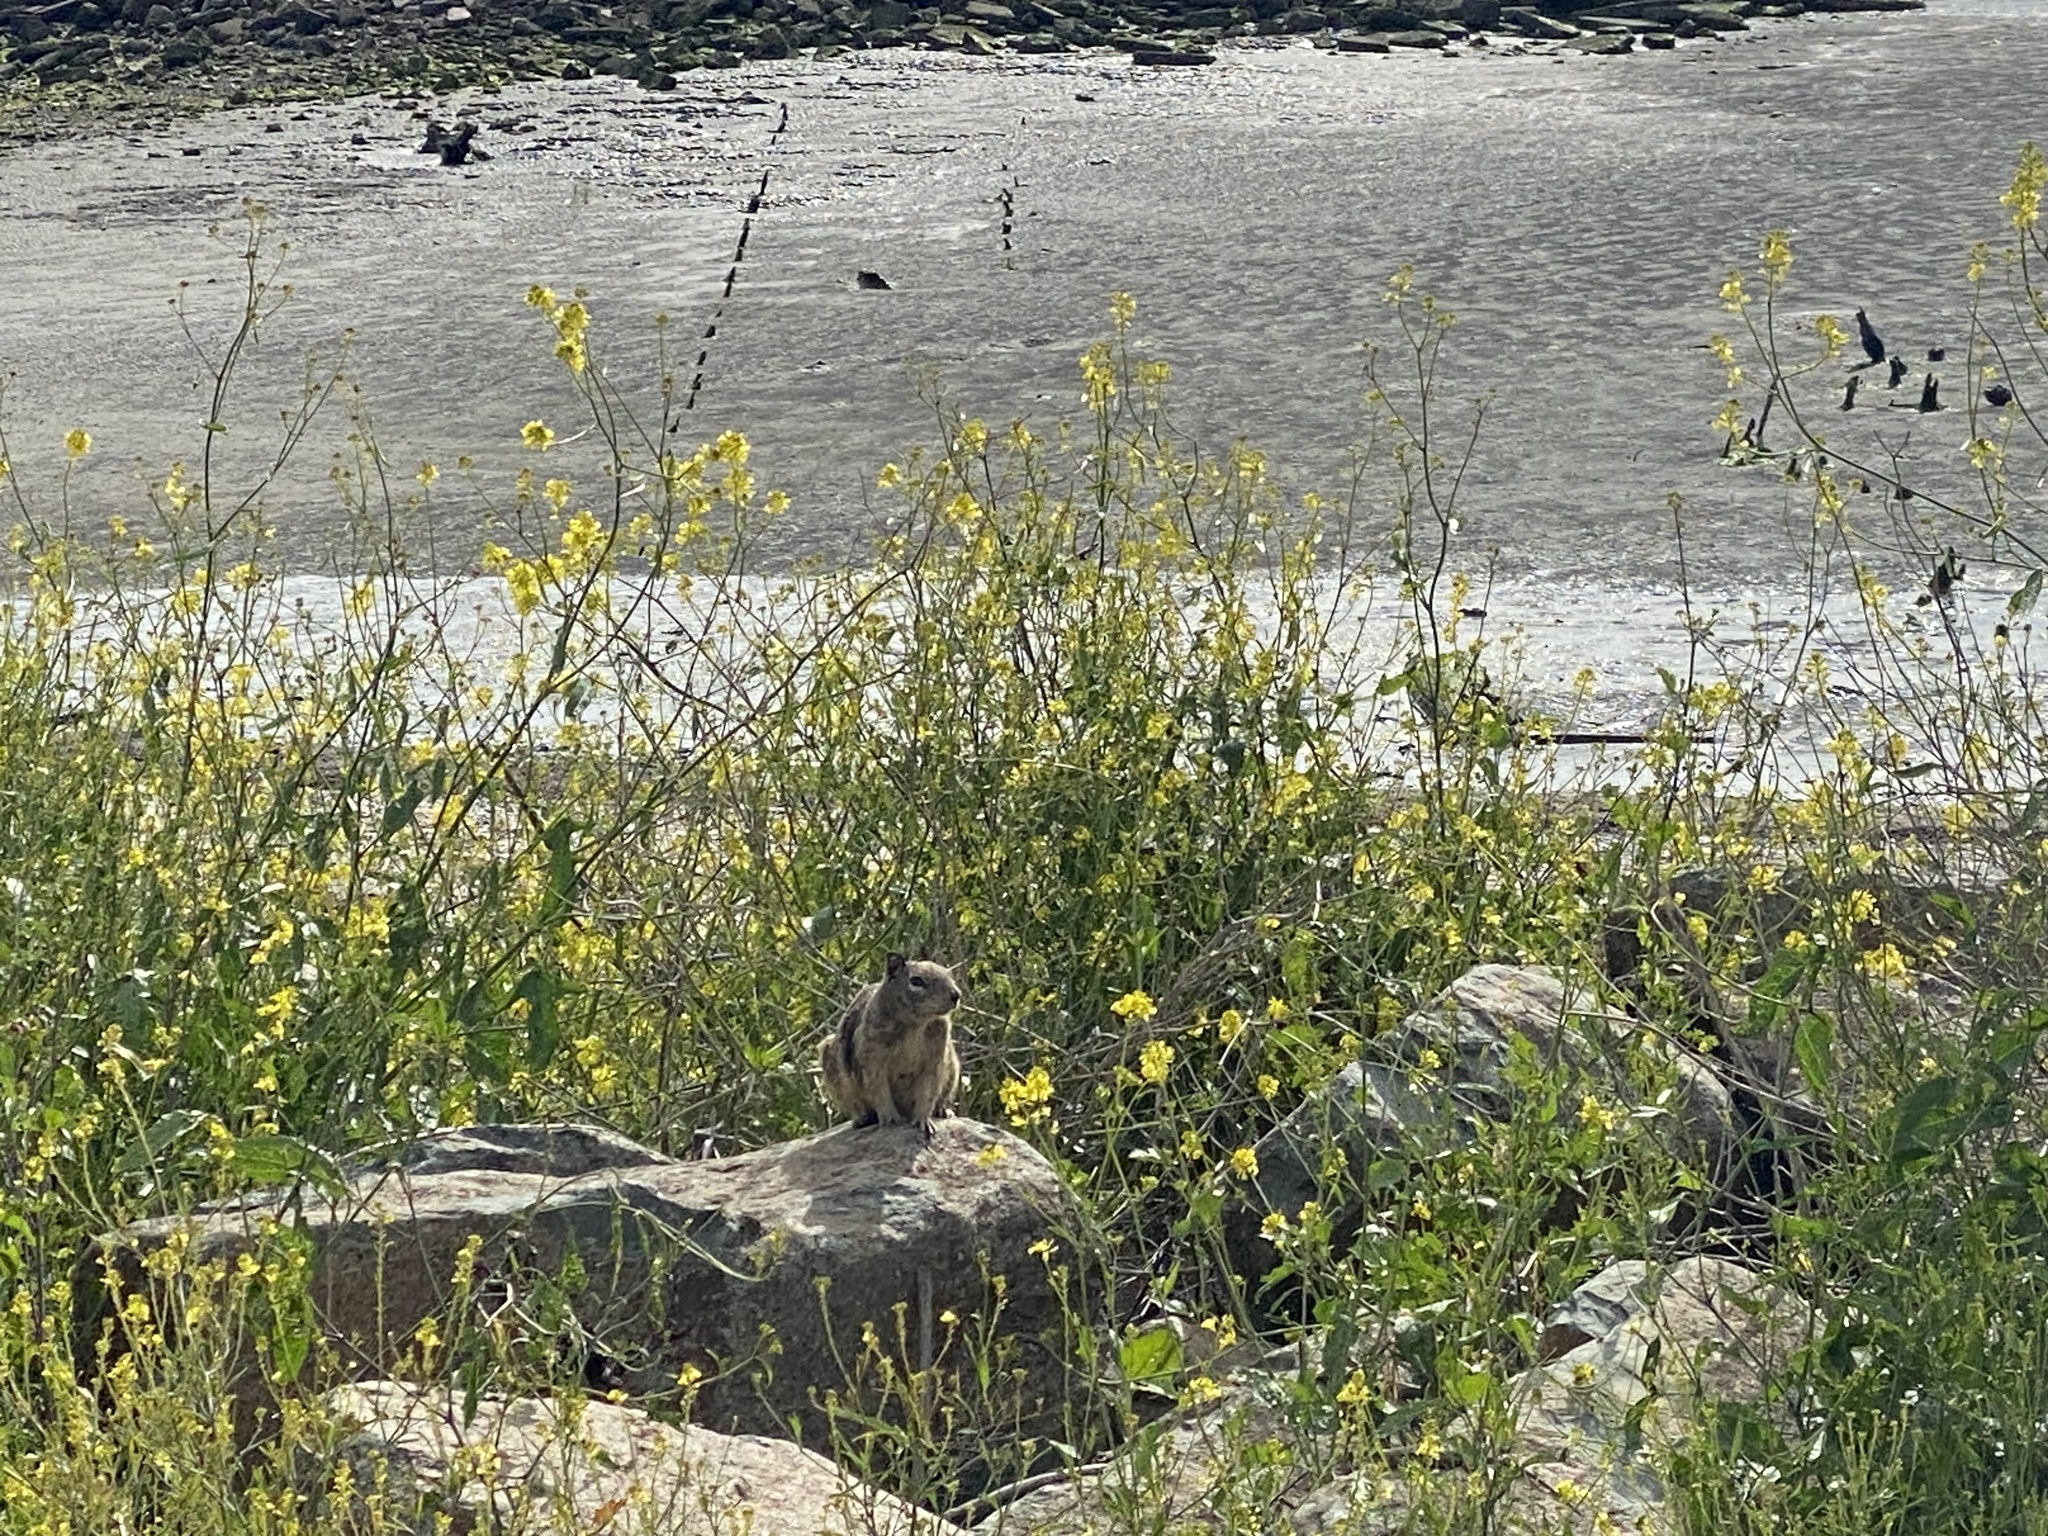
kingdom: Animalia
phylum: Chordata
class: Mammalia
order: Rodentia
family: Sciuridae
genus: Otospermophilus
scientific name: Otospermophilus beecheyi
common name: California ground squirrel
